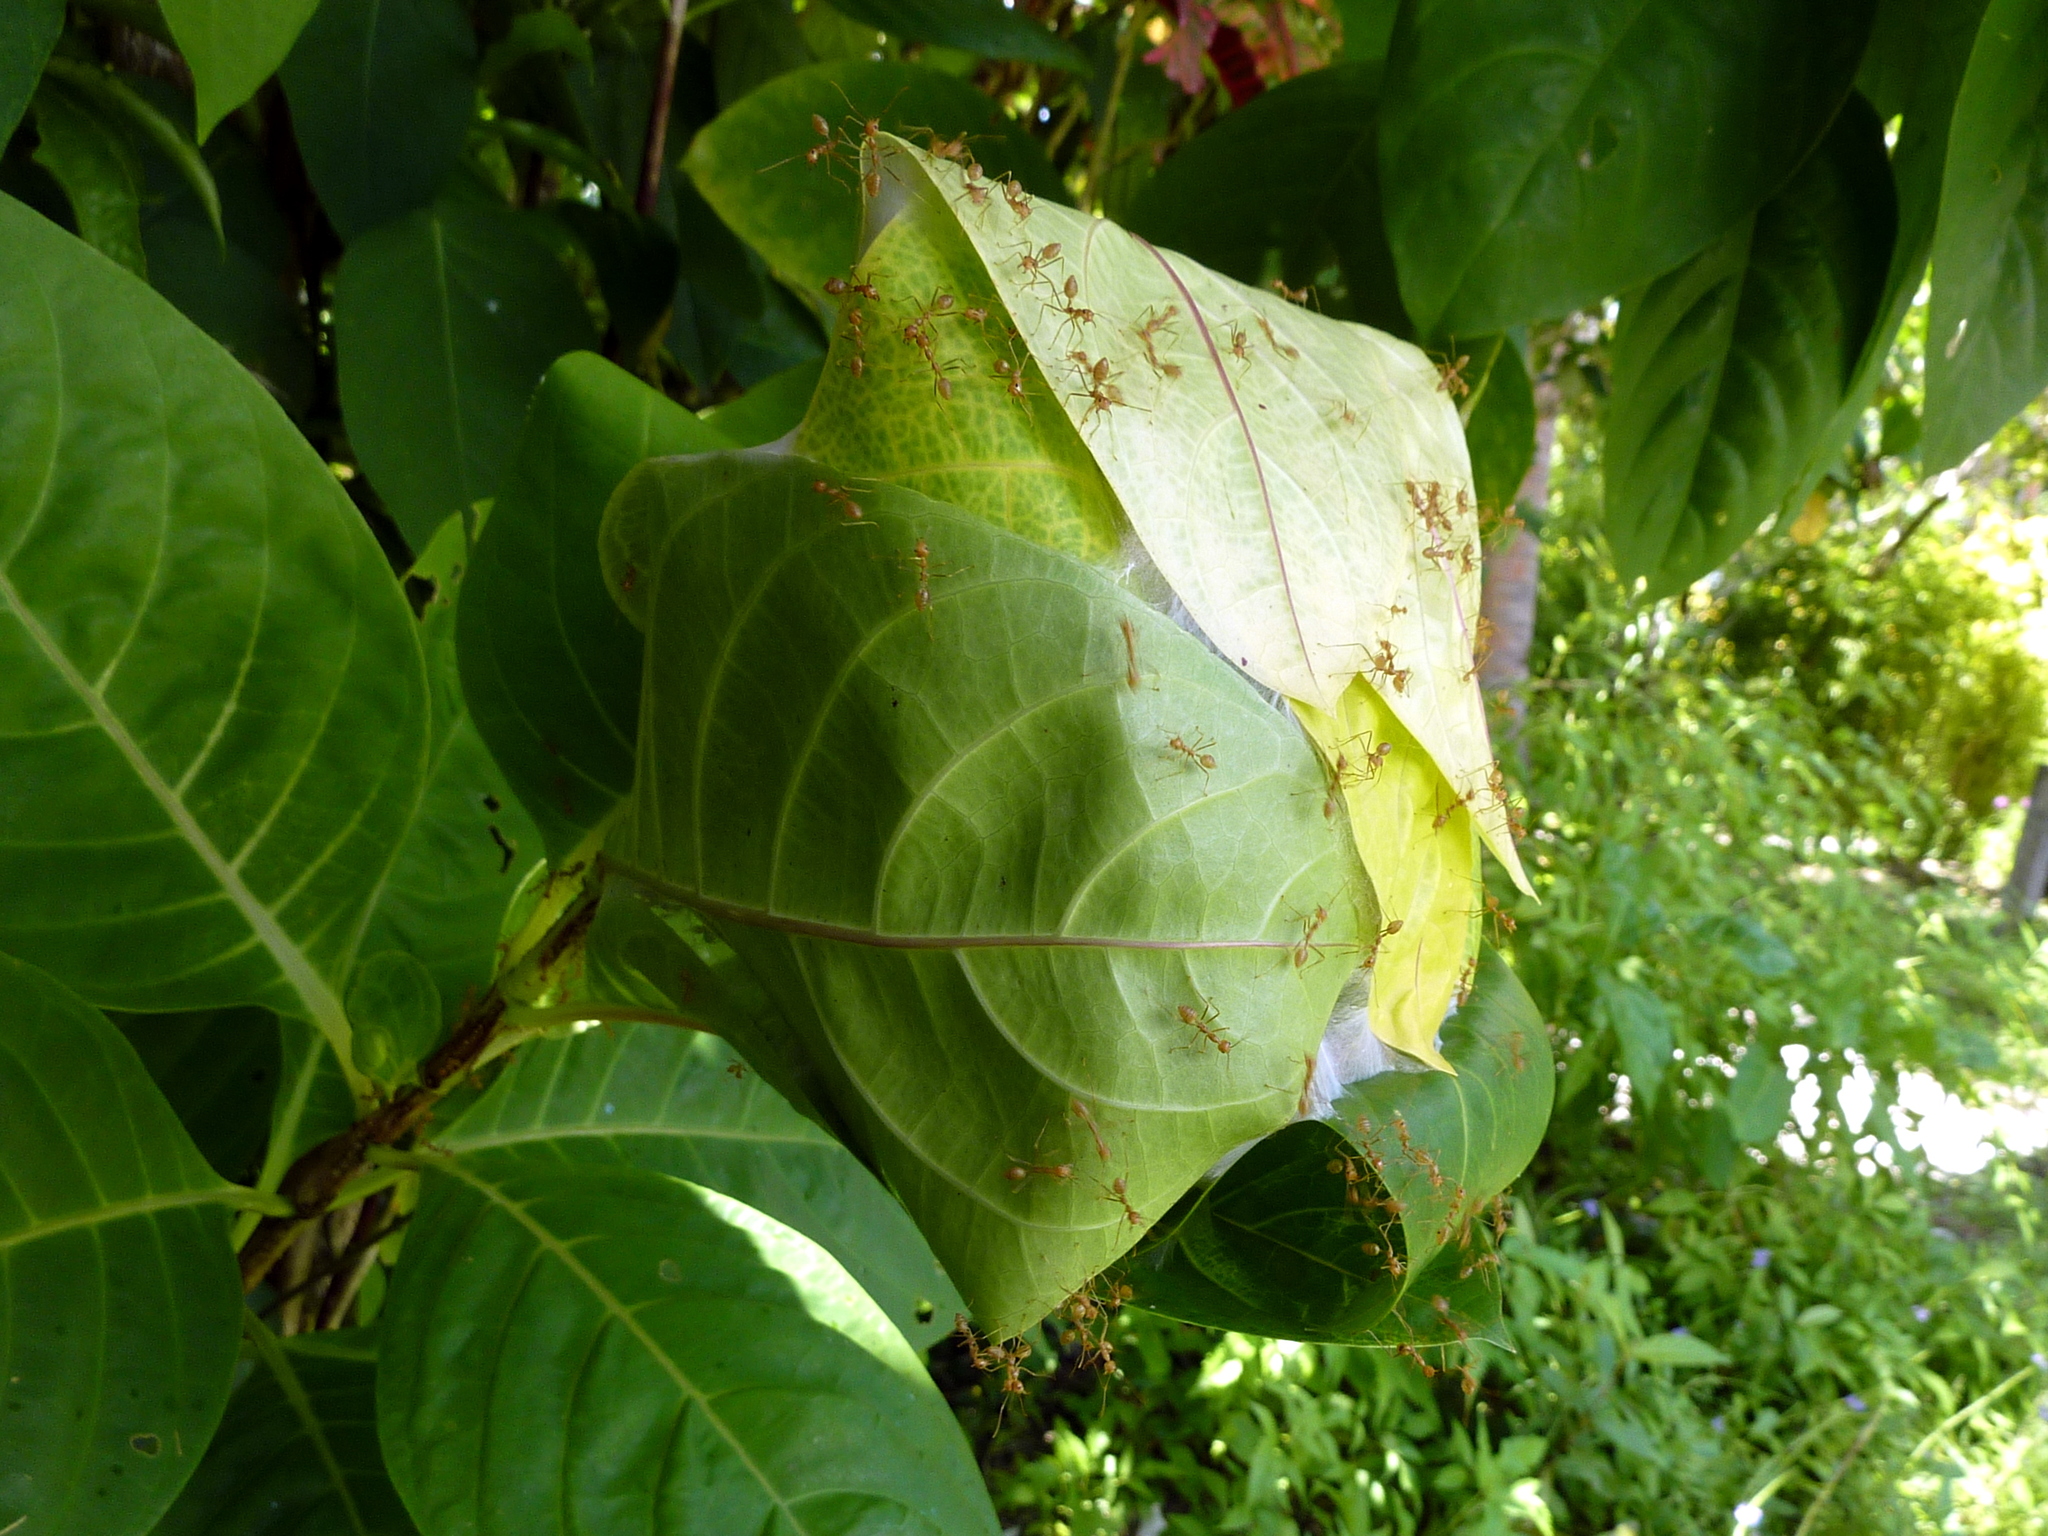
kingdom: Animalia
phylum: Arthropoda
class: Insecta
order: Hymenoptera
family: Formicidae
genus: Oecophylla
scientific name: Oecophylla smaragdina
